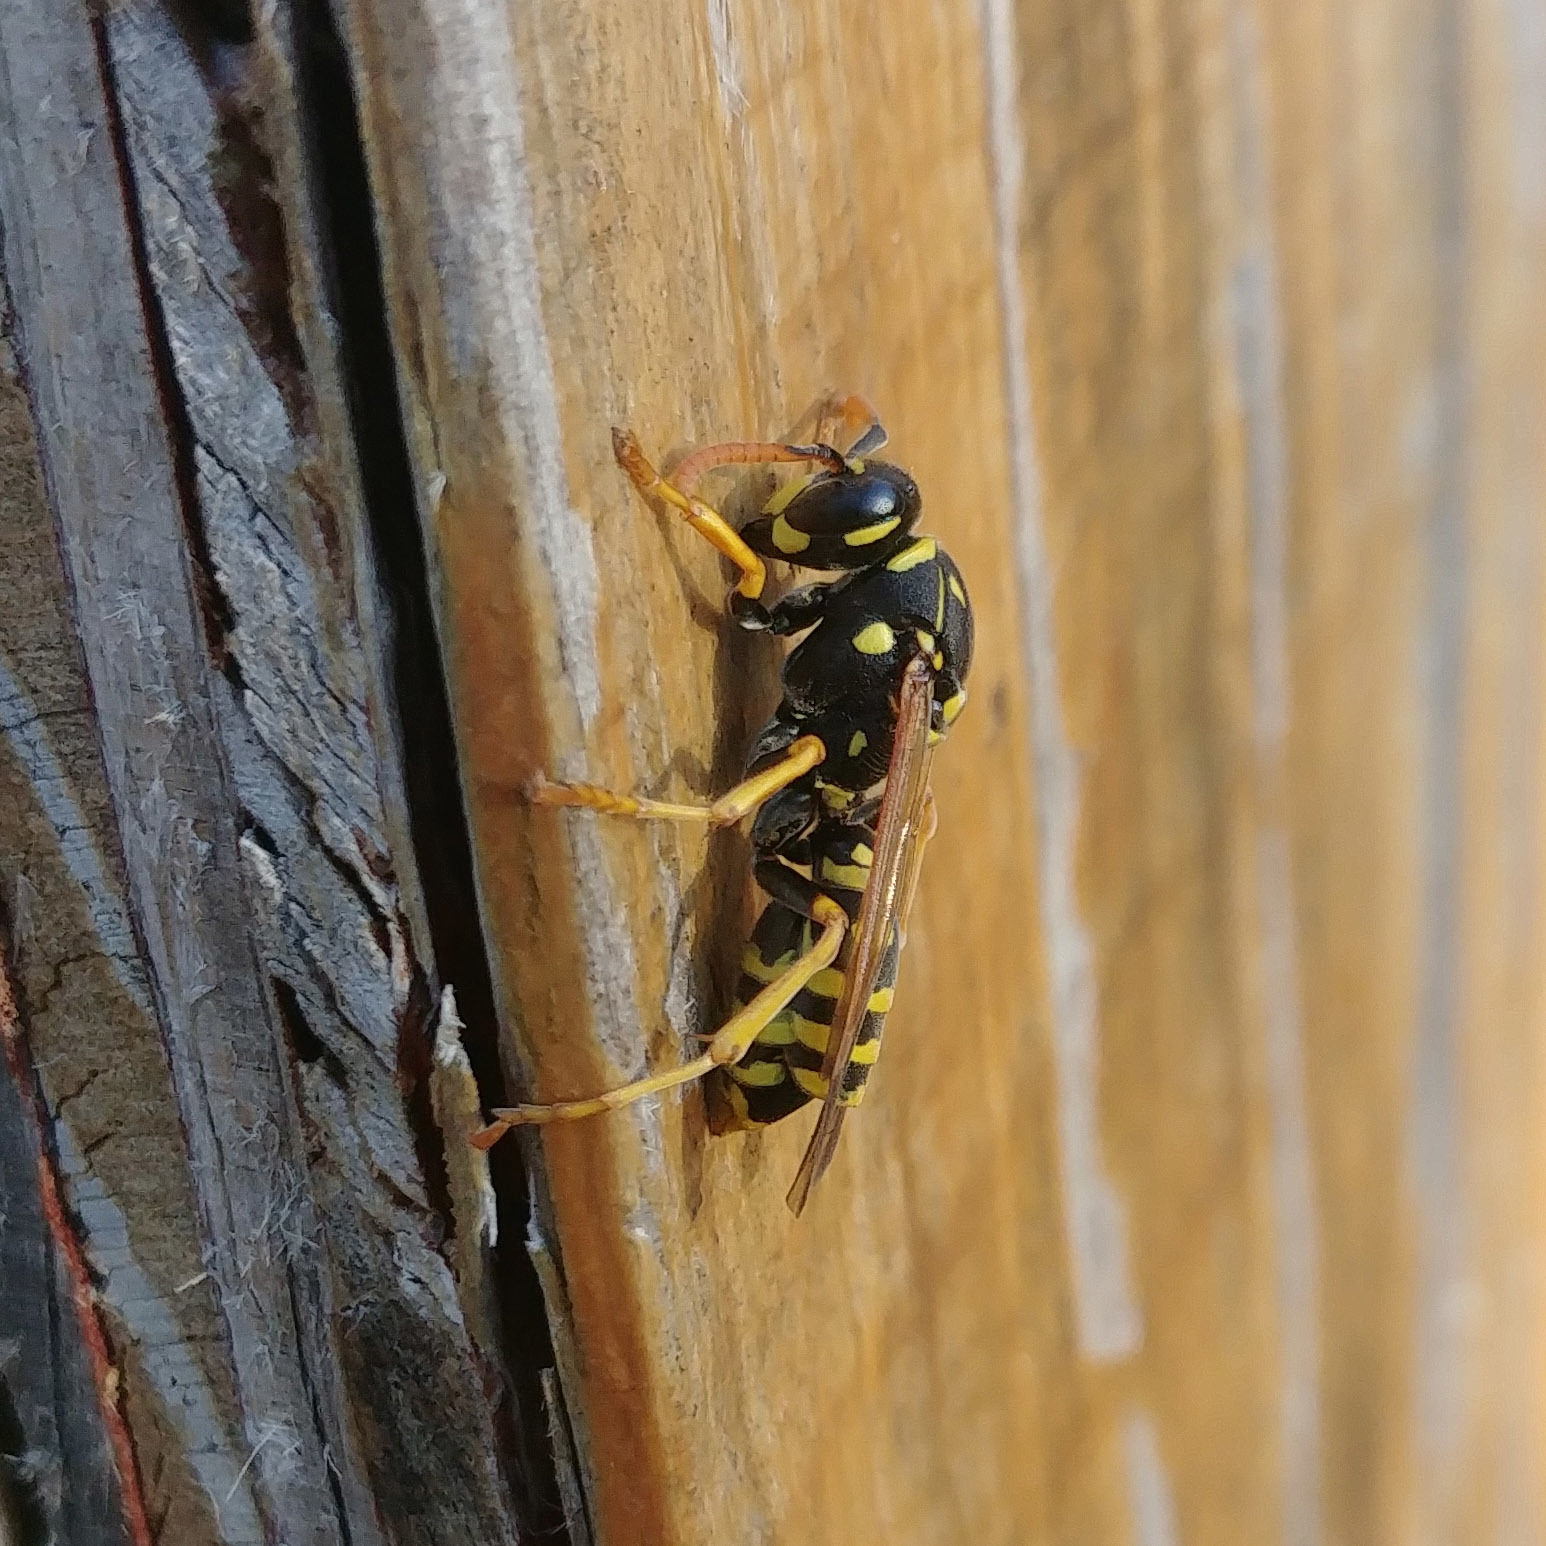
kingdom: Animalia
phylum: Arthropoda
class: Insecta
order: Hymenoptera
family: Eumenidae
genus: Polistes
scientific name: Polistes dominula
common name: Paper wasp
